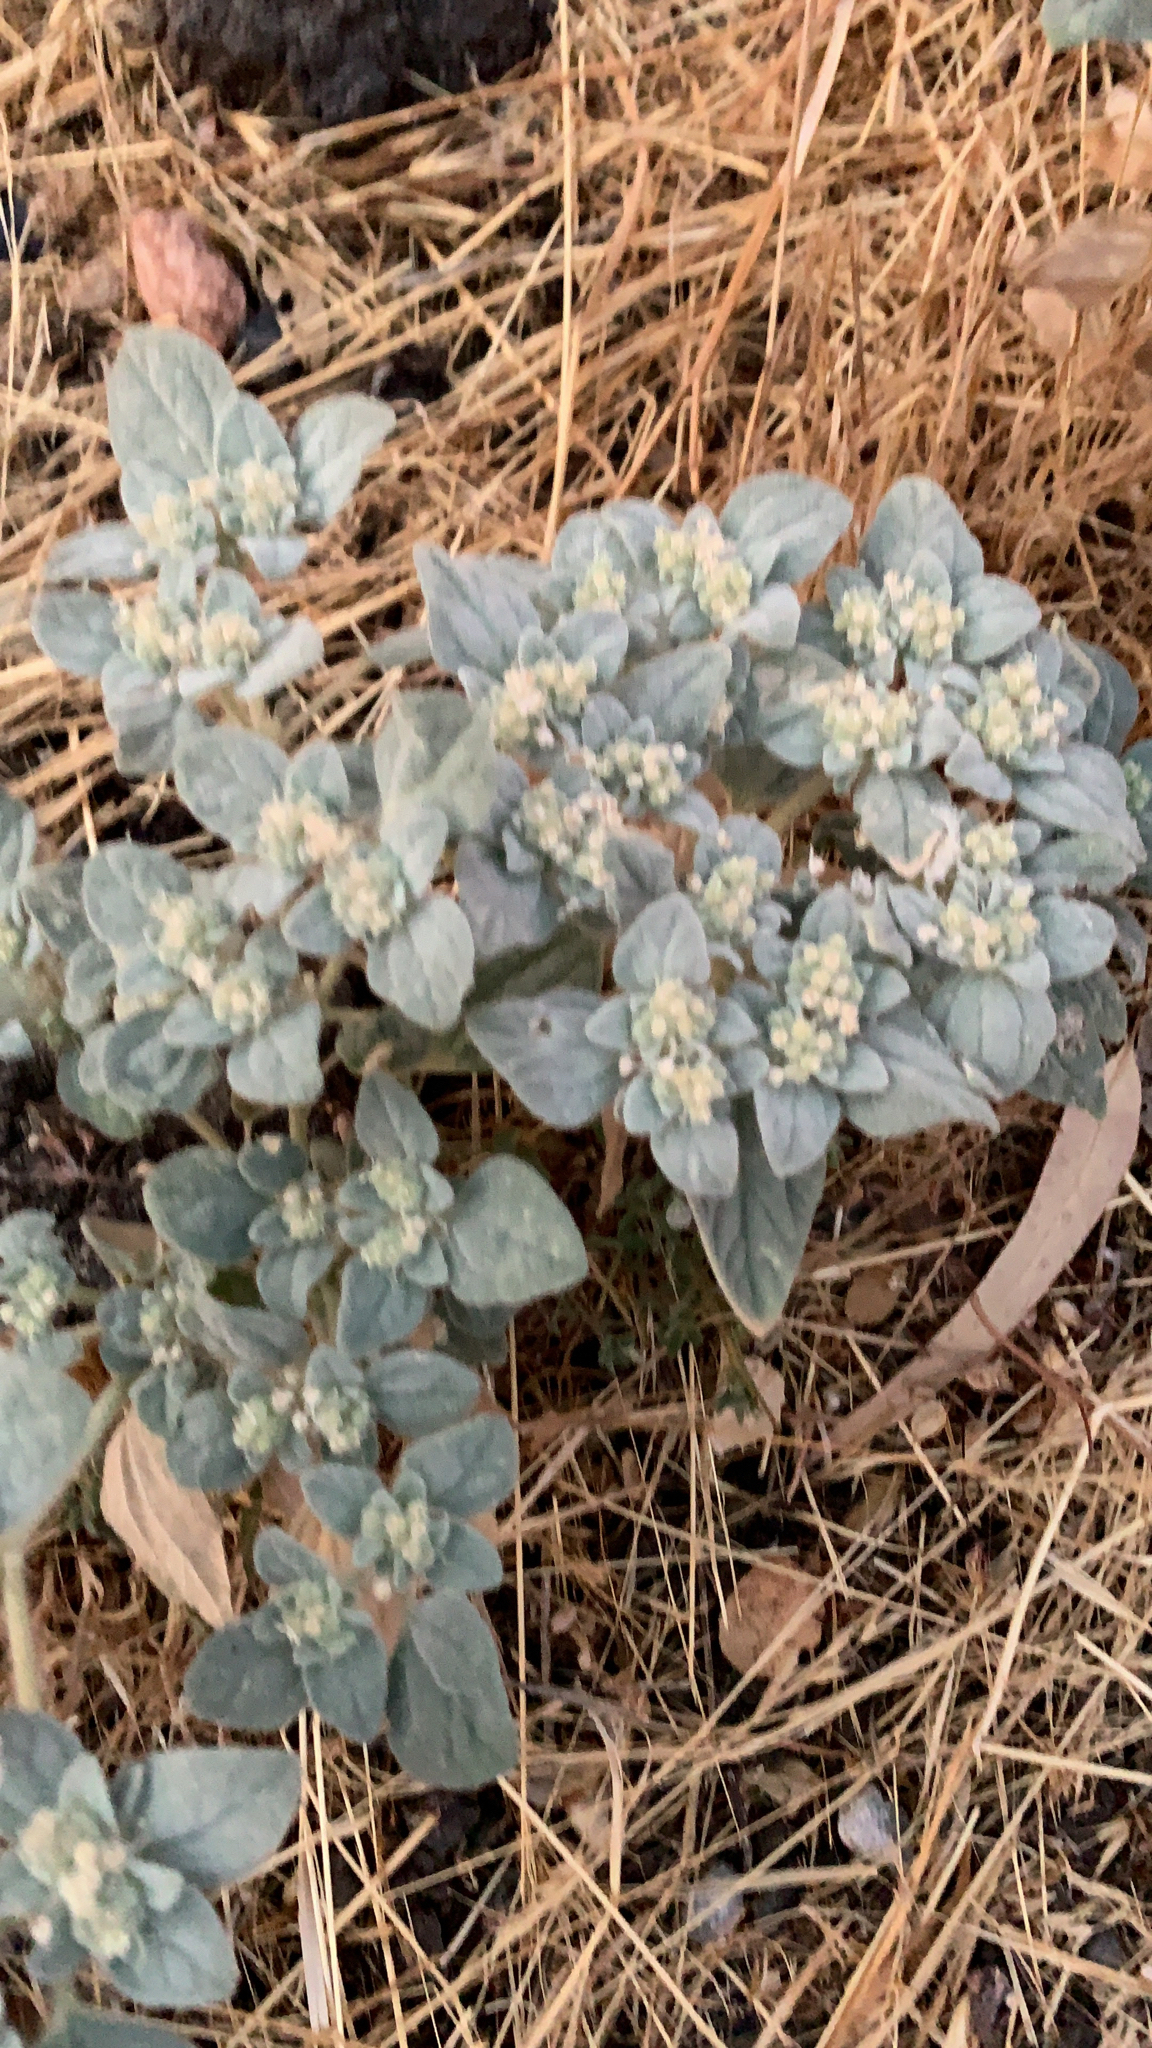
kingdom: Plantae
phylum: Tracheophyta
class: Magnoliopsida
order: Malpighiales
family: Euphorbiaceae
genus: Croton
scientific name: Croton setiger
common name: Dove weed
